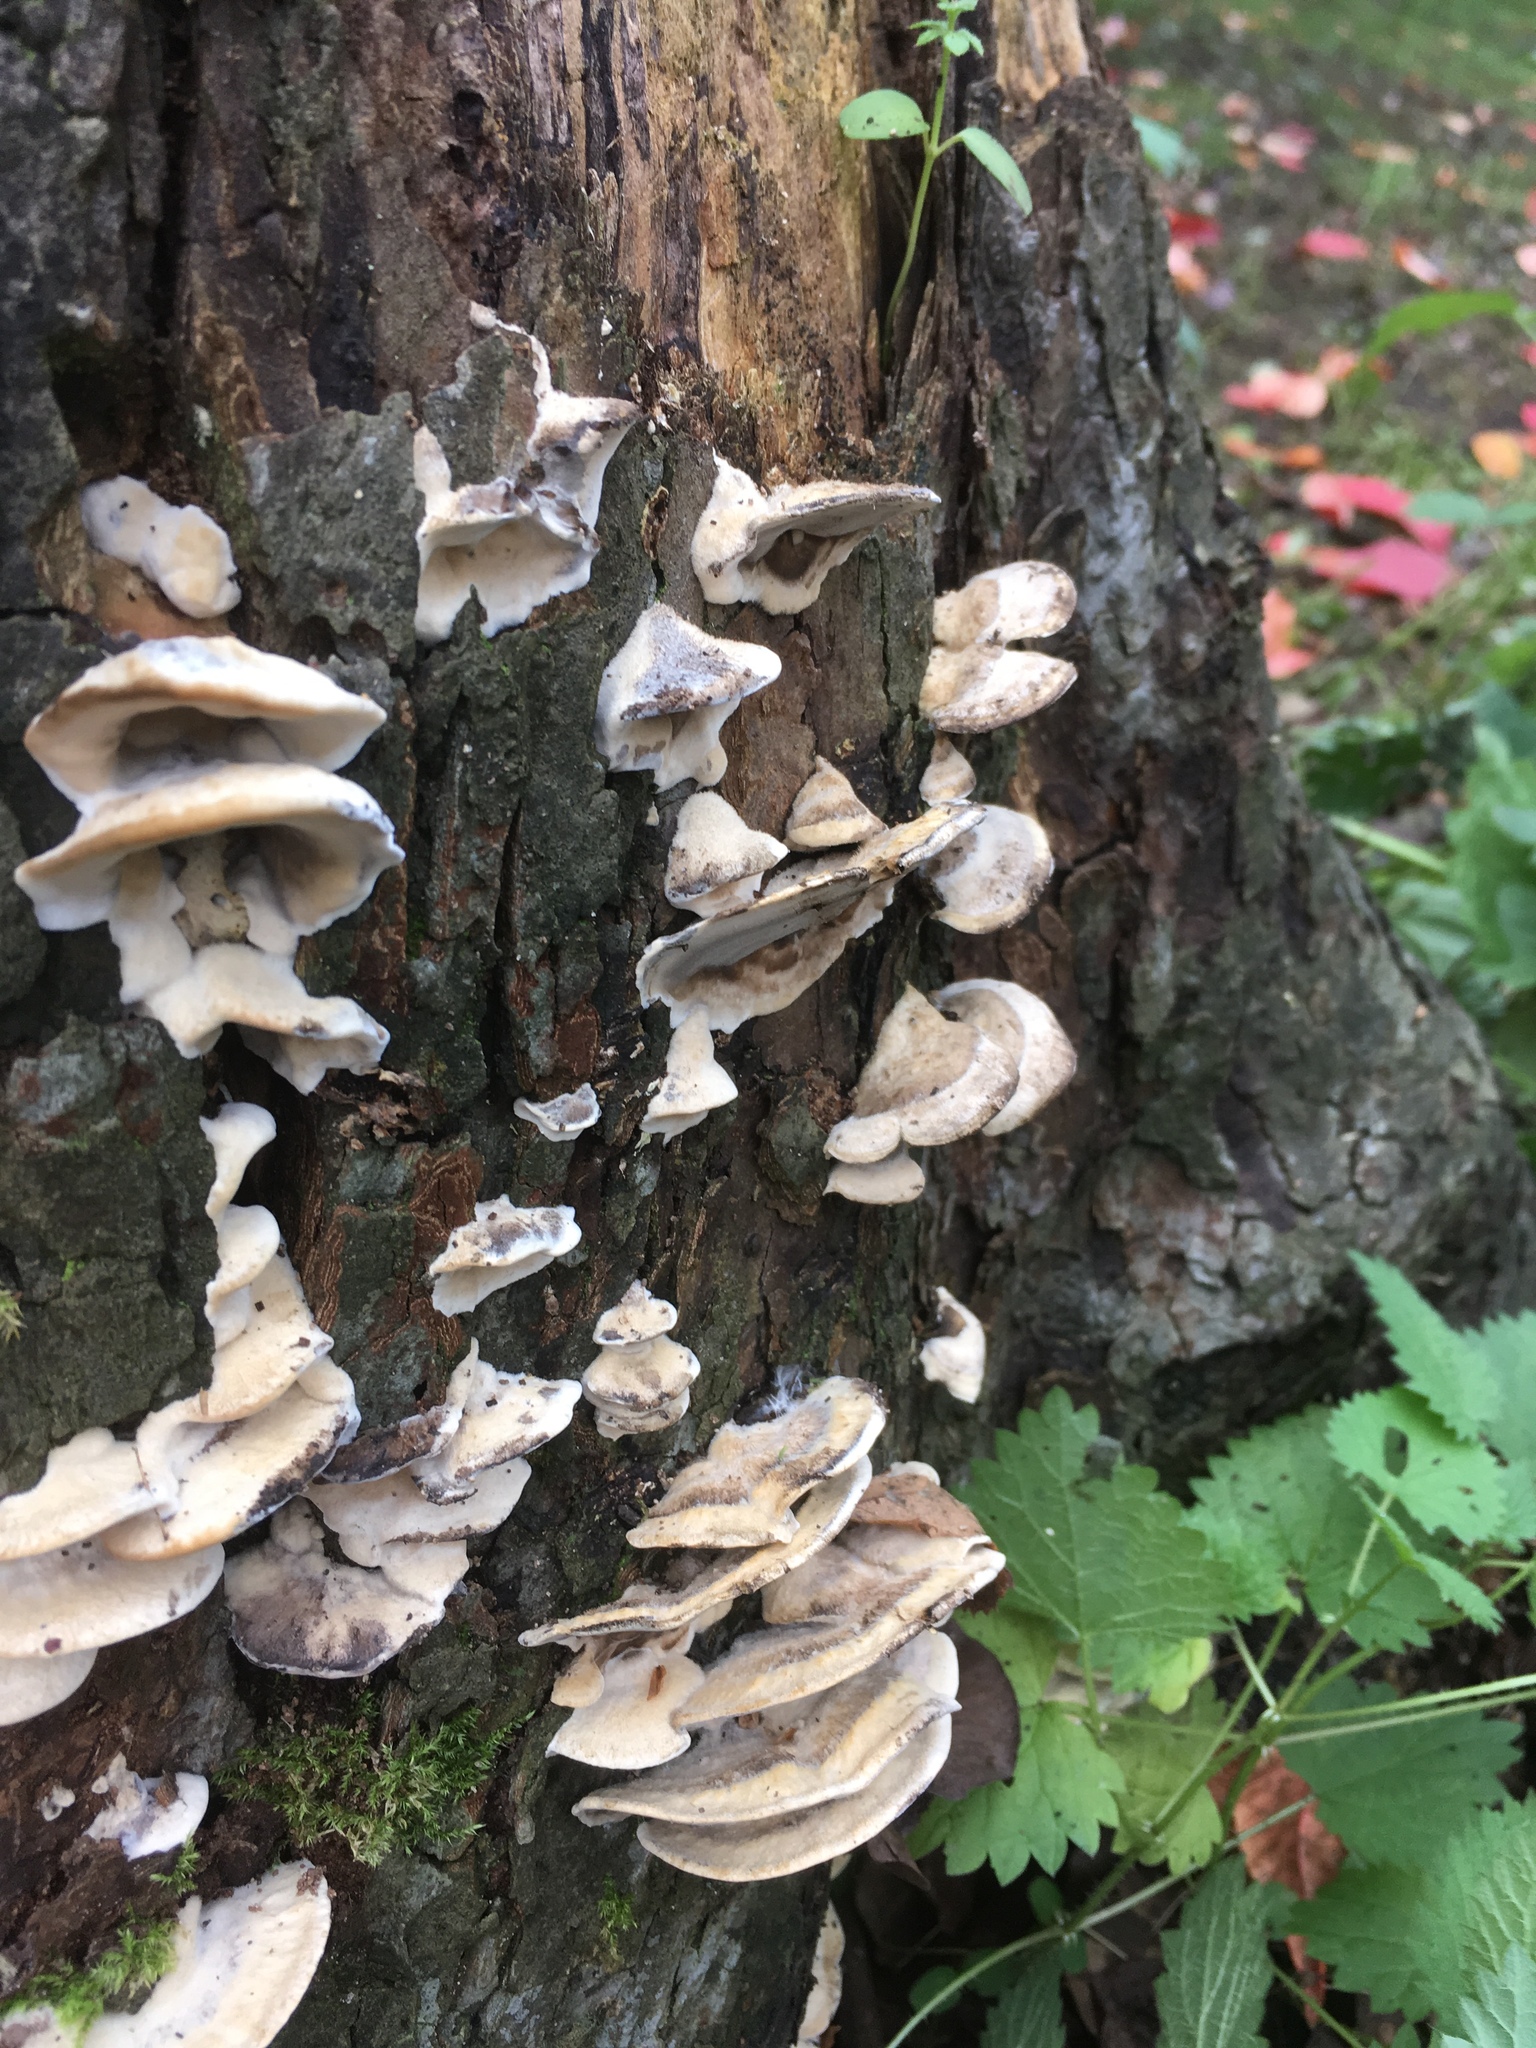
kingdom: Fungi
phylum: Basidiomycota
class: Agaricomycetes
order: Polyporales
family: Phanerochaetaceae
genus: Bjerkandera
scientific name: Bjerkandera adusta
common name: Smoky bracket
